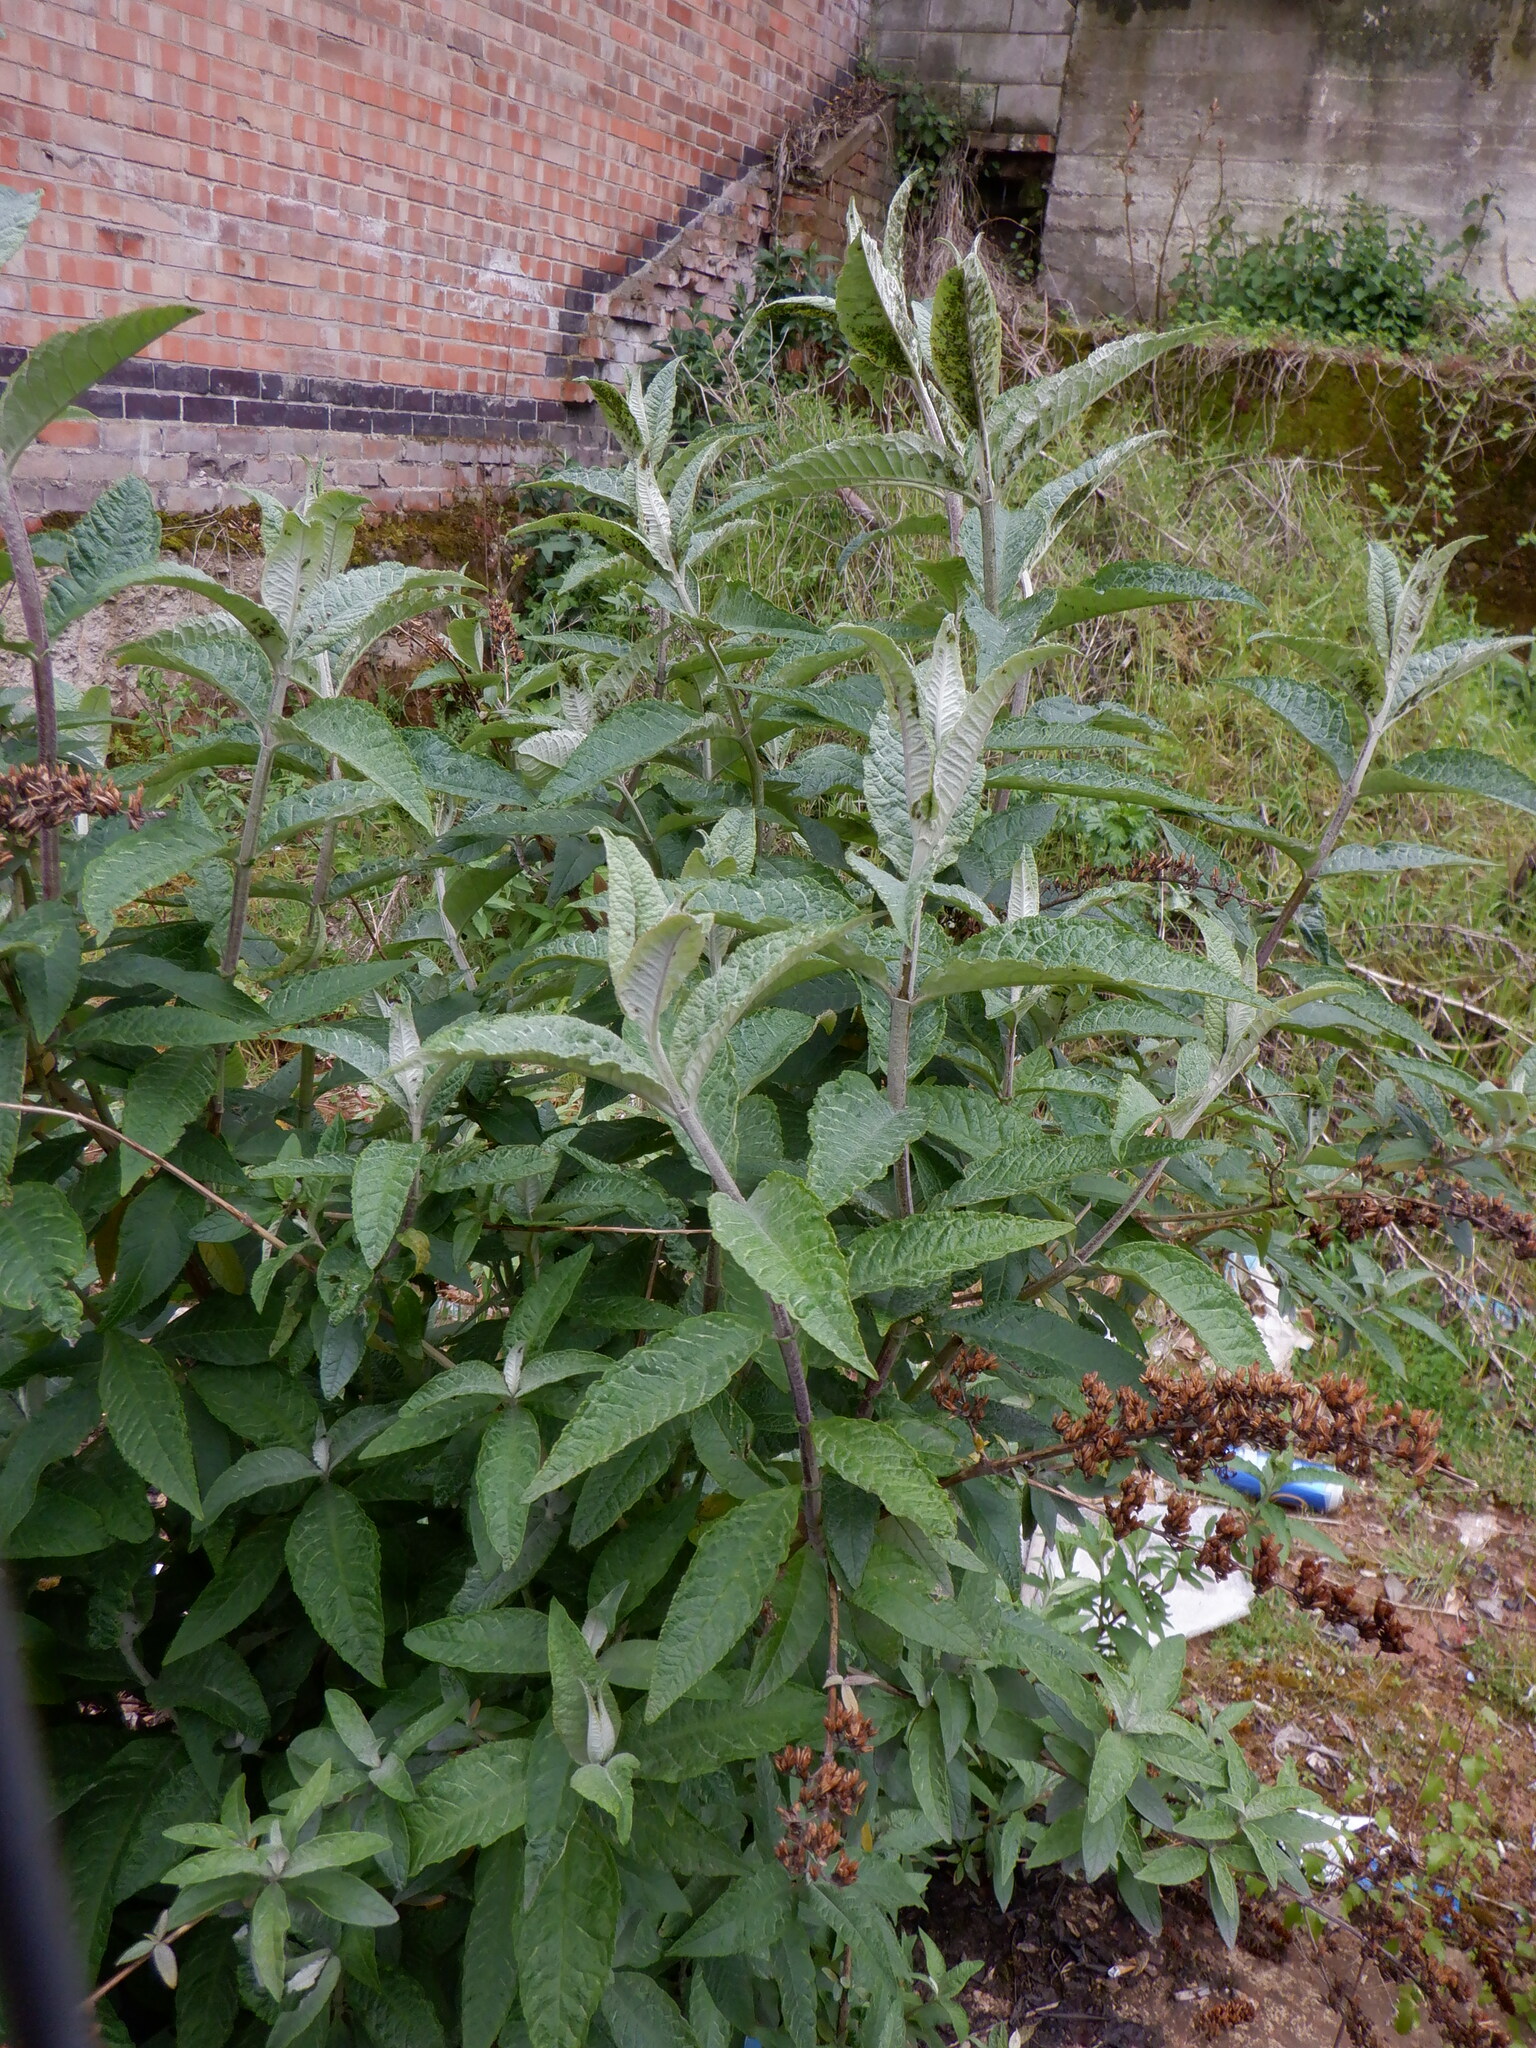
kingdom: Plantae
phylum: Tracheophyta
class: Magnoliopsida
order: Lamiales
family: Scrophulariaceae
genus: Buddleja
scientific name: Buddleja davidii
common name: Butterfly-bush
